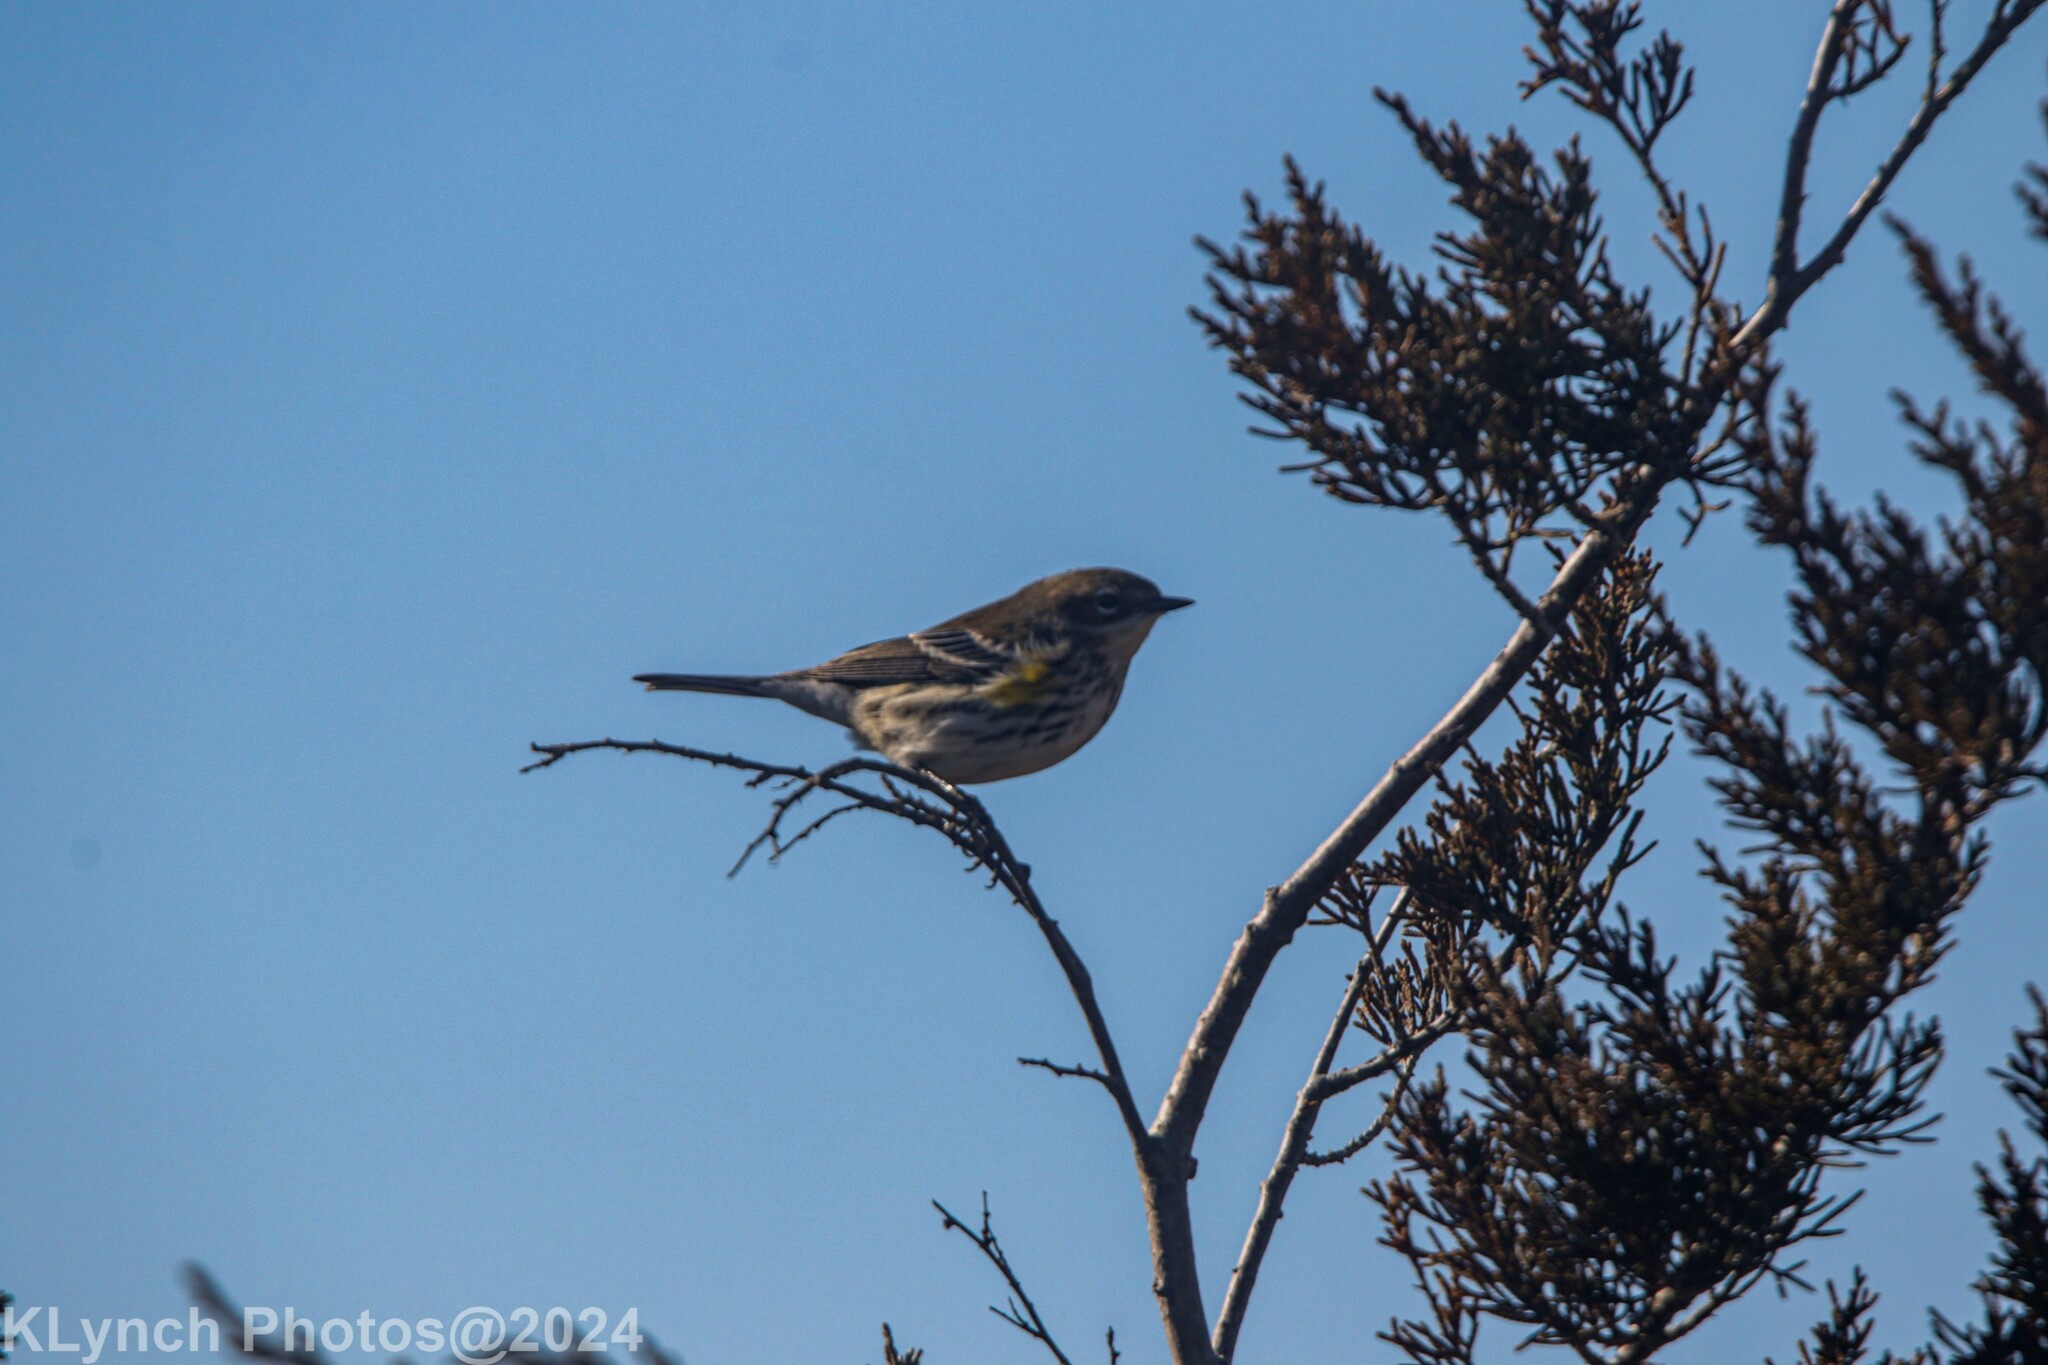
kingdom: Animalia
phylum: Chordata
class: Aves
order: Passeriformes
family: Parulidae
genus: Setophaga
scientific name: Setophaga
